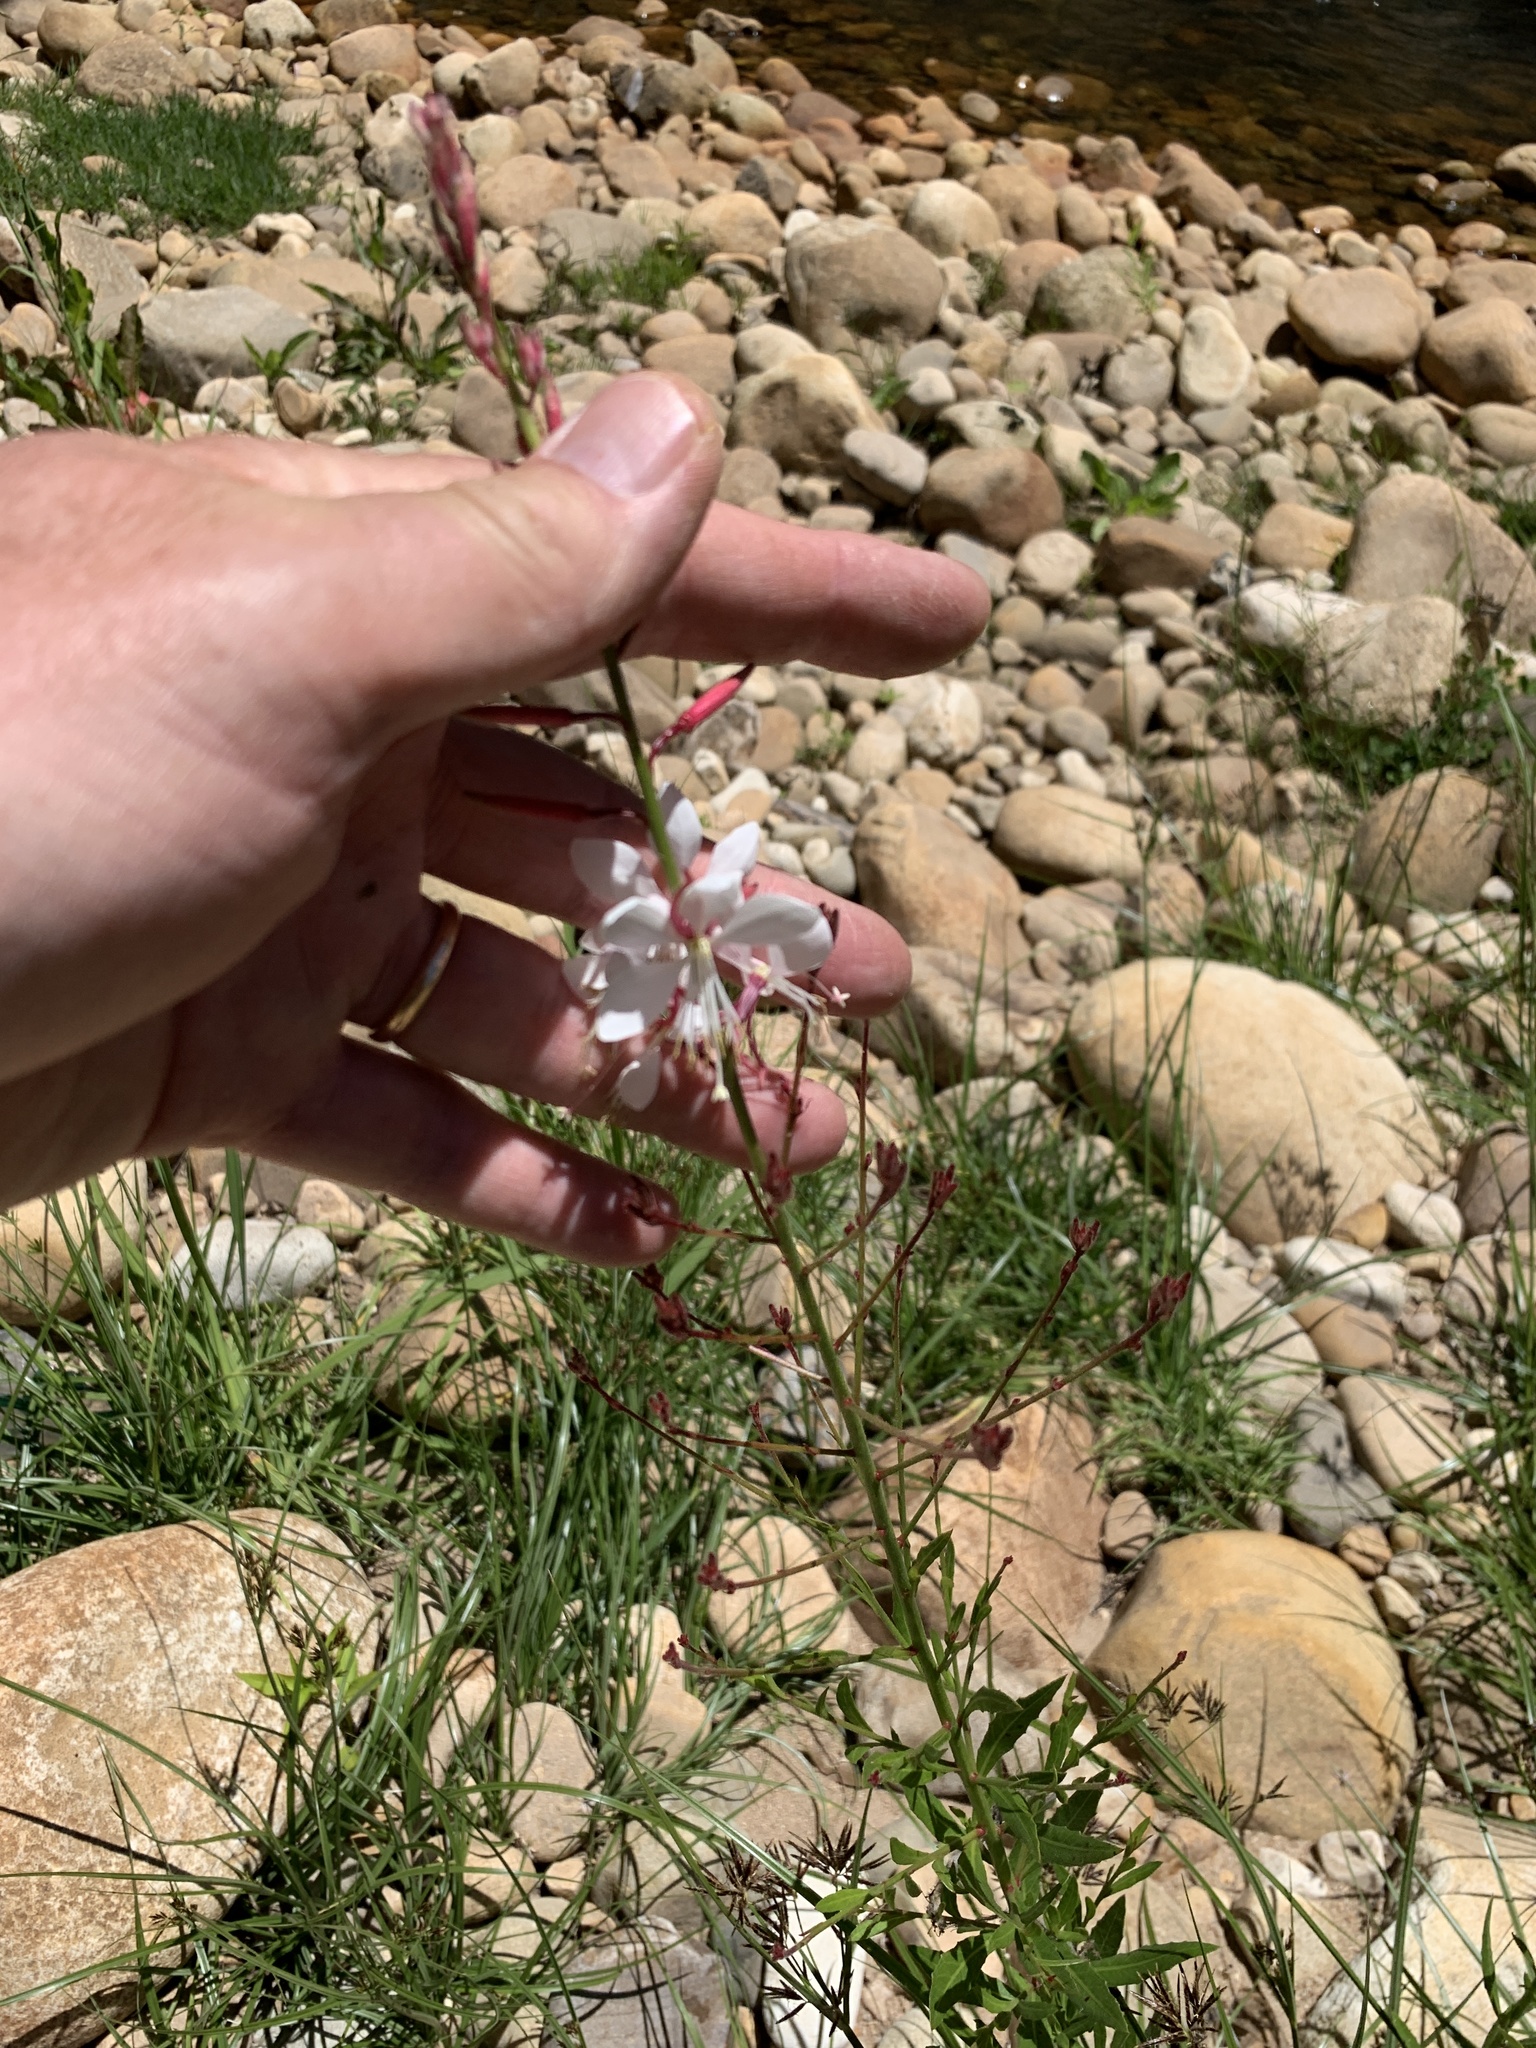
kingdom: Plantae
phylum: Tracheophyta
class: Magnoliopsida
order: Myrtales
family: Onagraceae
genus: Oenothera
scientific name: Oenothera lindheimeri
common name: Lindheimer's beeblossom
